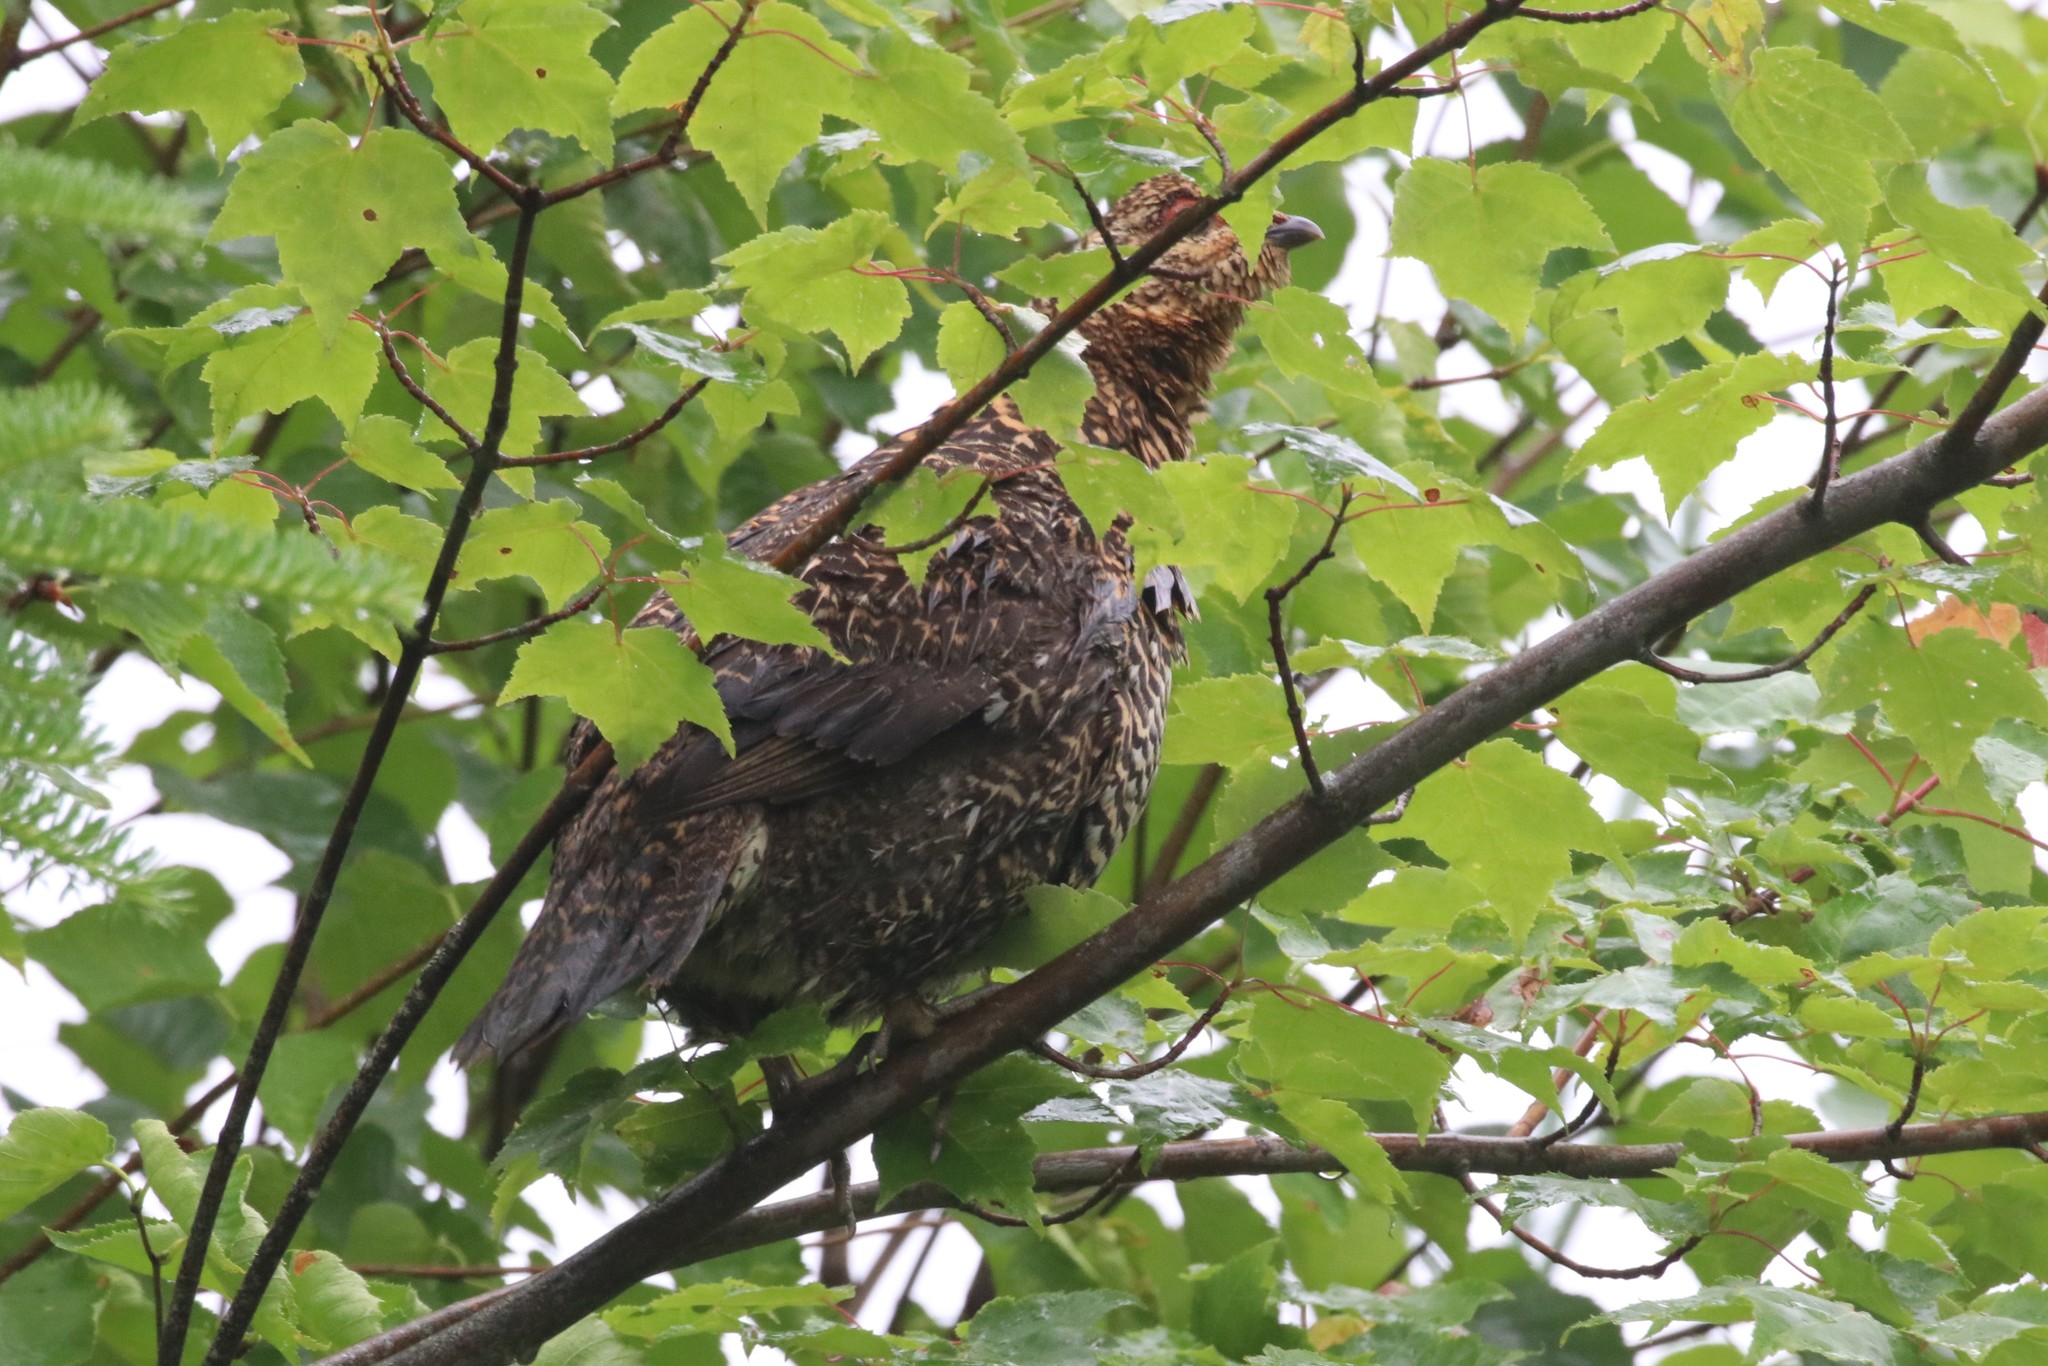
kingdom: Animalia
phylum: Chordata
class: Aves
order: Galliformes
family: Phasianidae
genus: Canachites
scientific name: Canachites canadensis
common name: Spruce grouse
